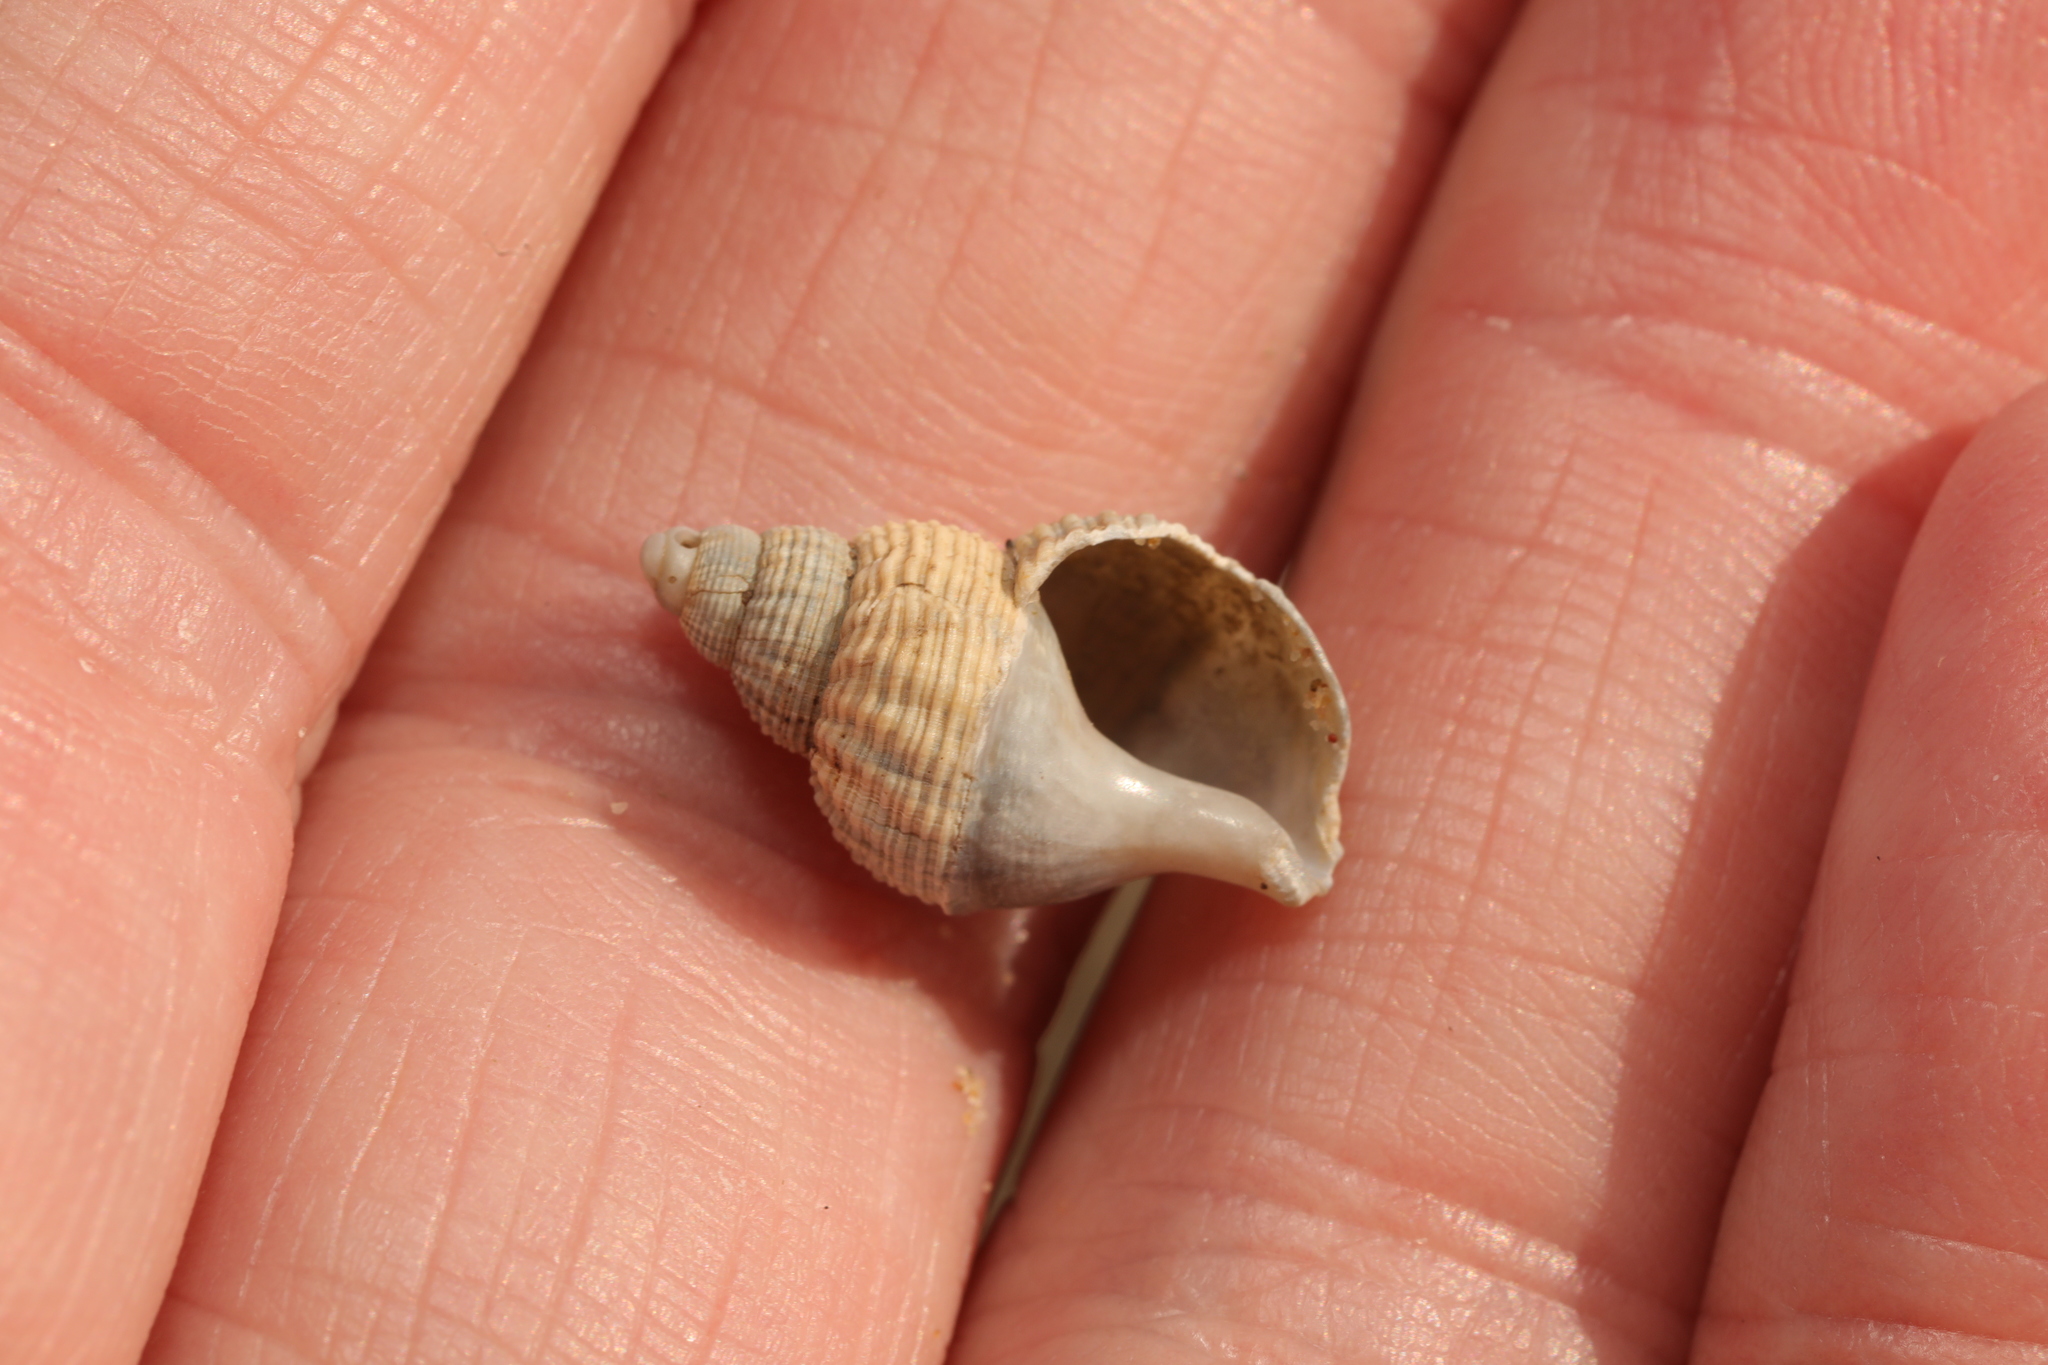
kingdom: Animalia
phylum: Mollusca
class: Gastropoda
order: Neogastropoda
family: Buccinidae
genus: Buccinum
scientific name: Buccinum undatum
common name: Common whelk
